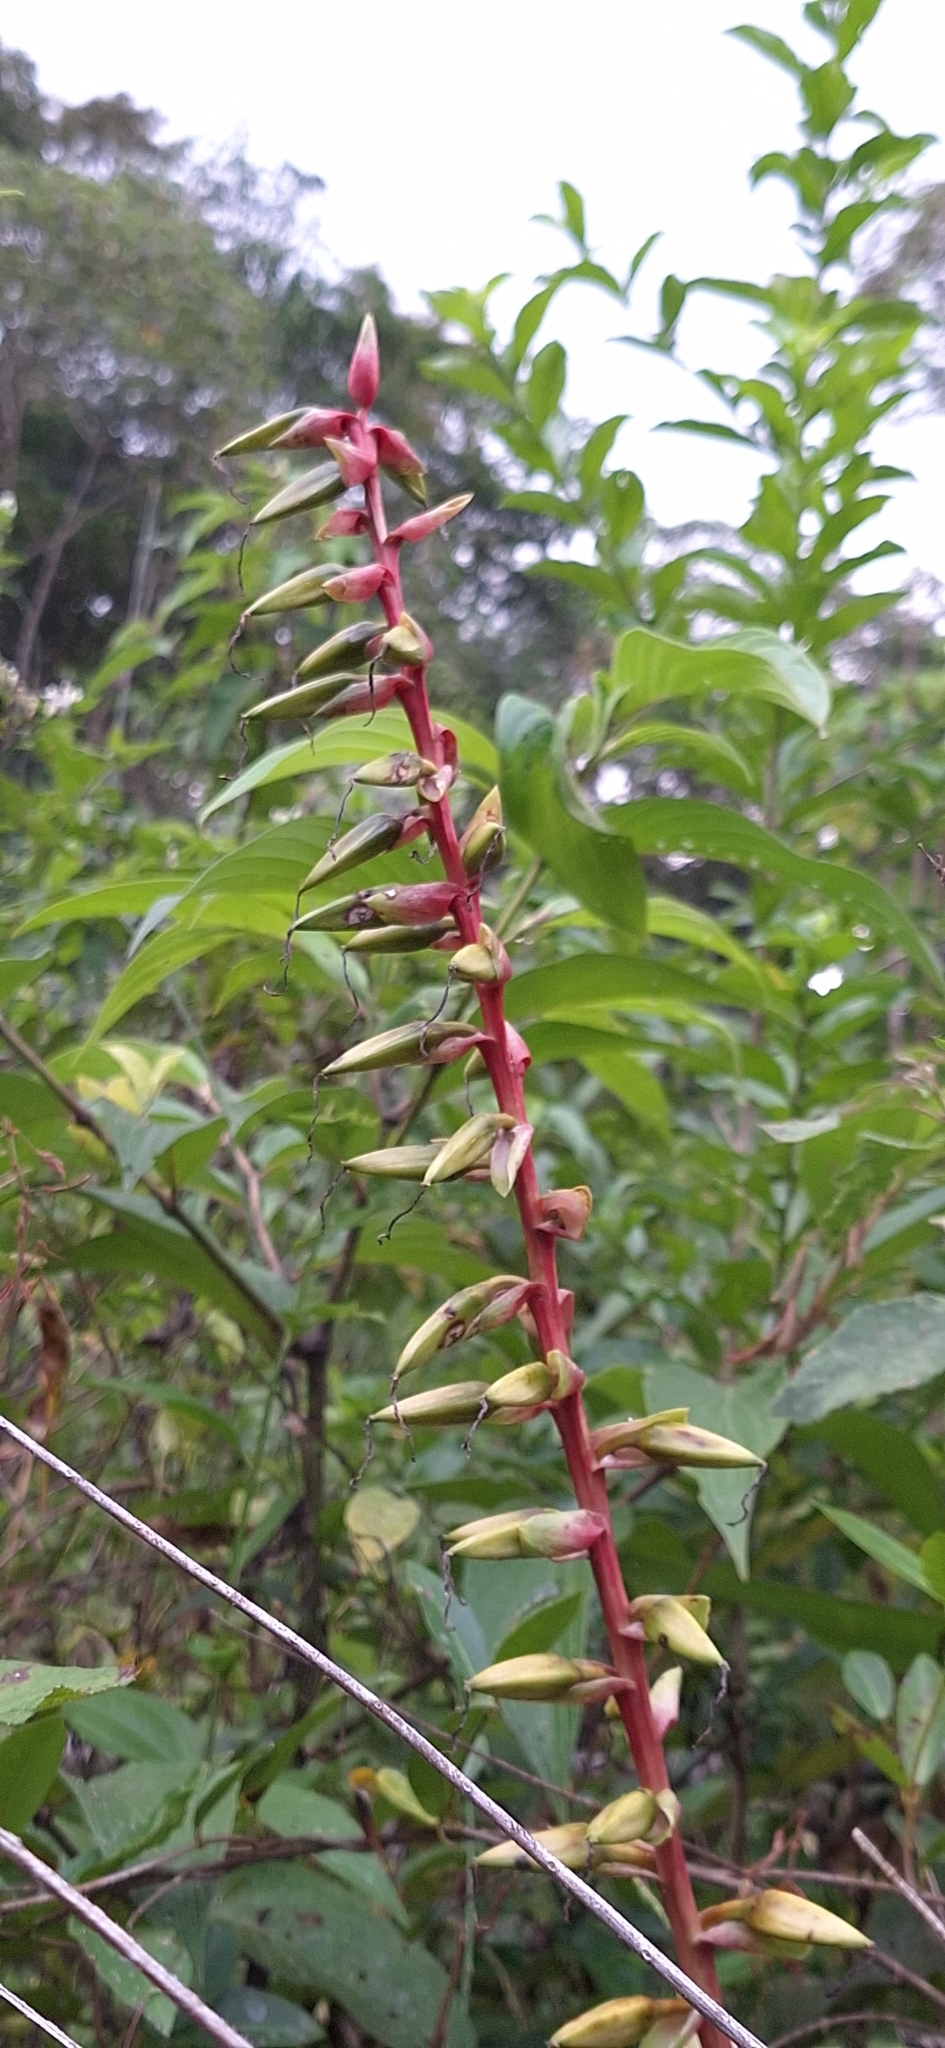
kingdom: Plantae
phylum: Tracheophyta
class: Liliopsida
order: Poales
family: Bromeliaceae
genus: Pitcairnia
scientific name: Pitcairnia maidifolia
